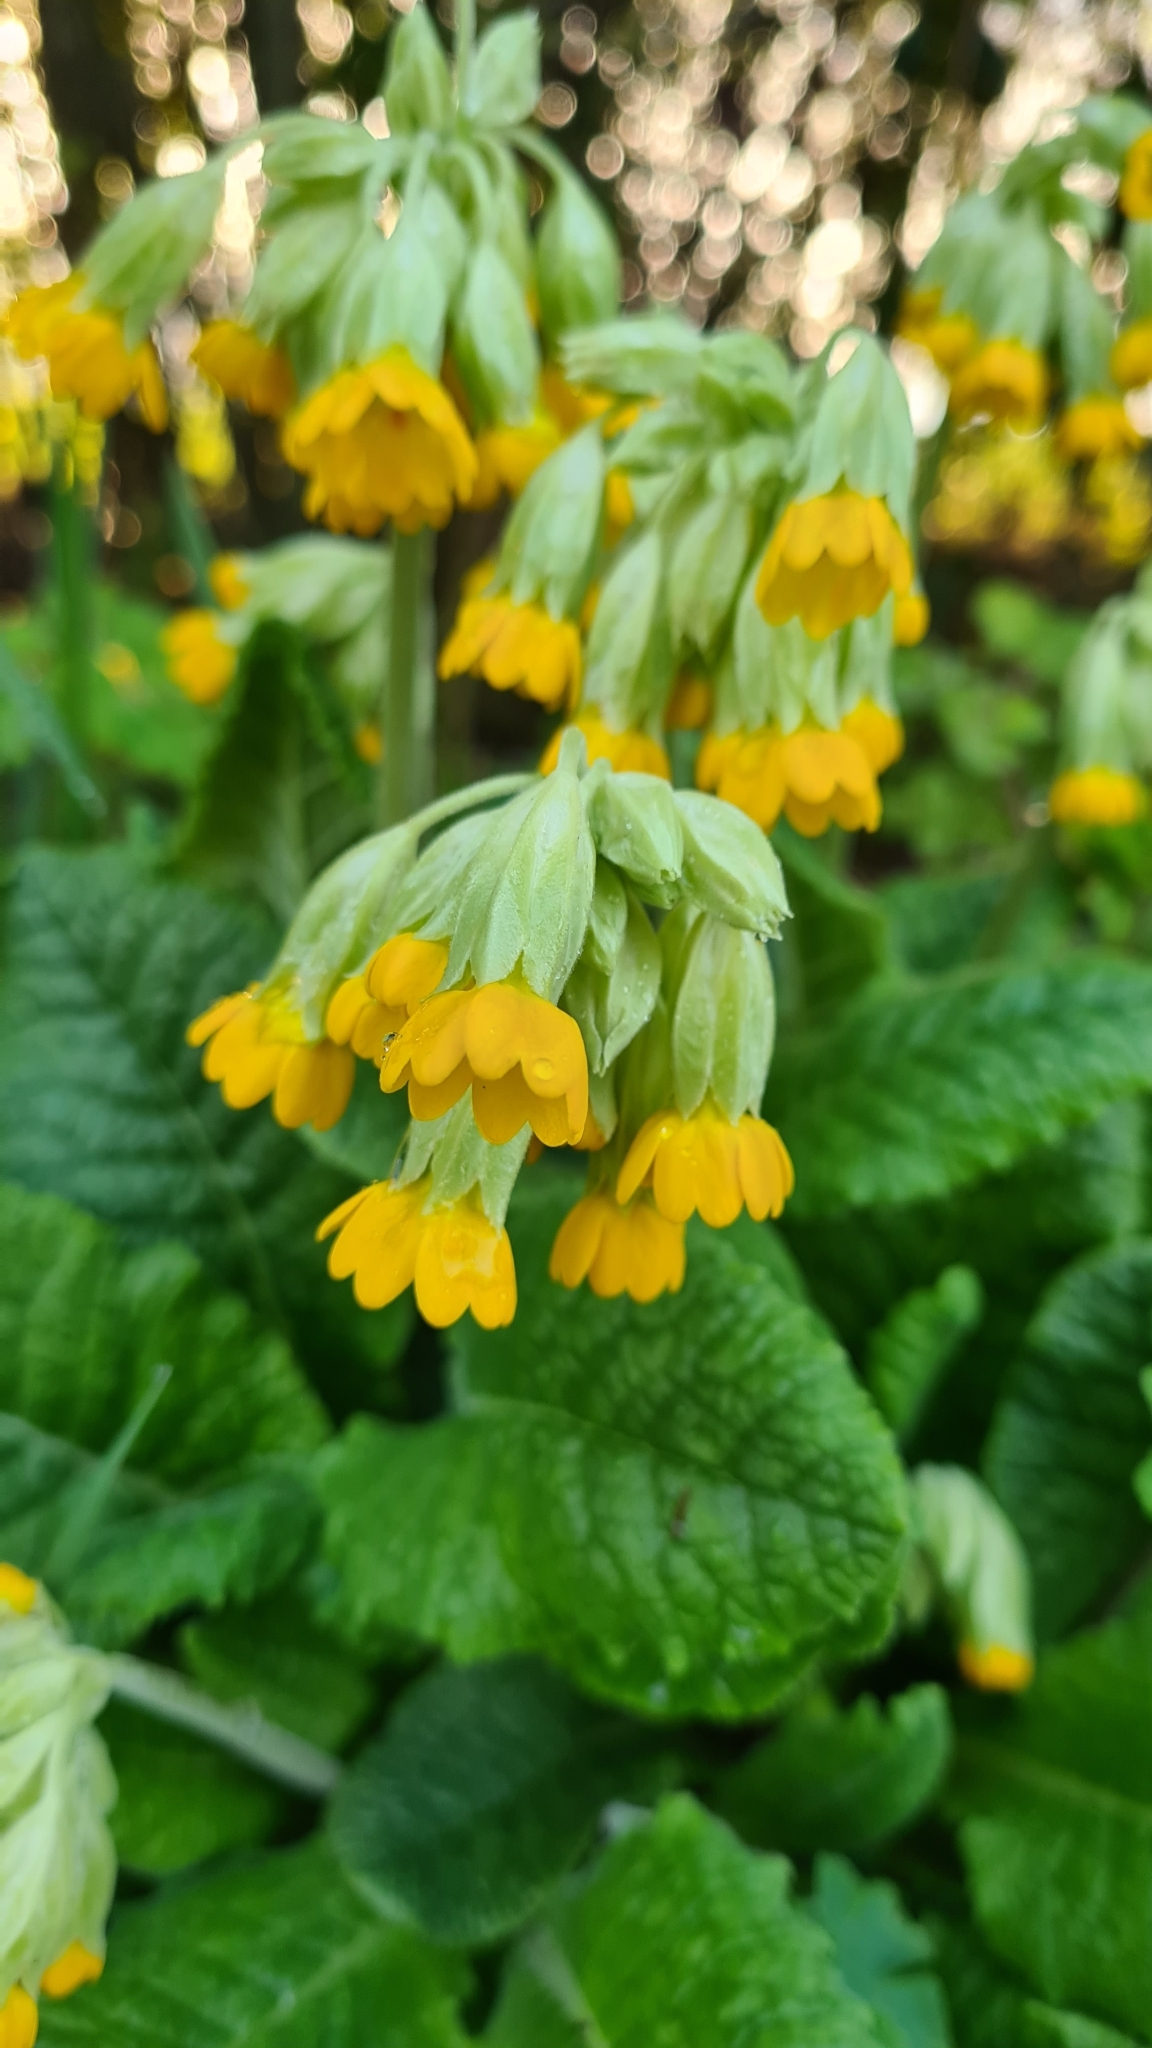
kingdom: Plantae
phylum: Tracheophyta
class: Magnoliopsida
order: Ericales
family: Primulaceae
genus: Primula
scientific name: Primula veris
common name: Cowslip
